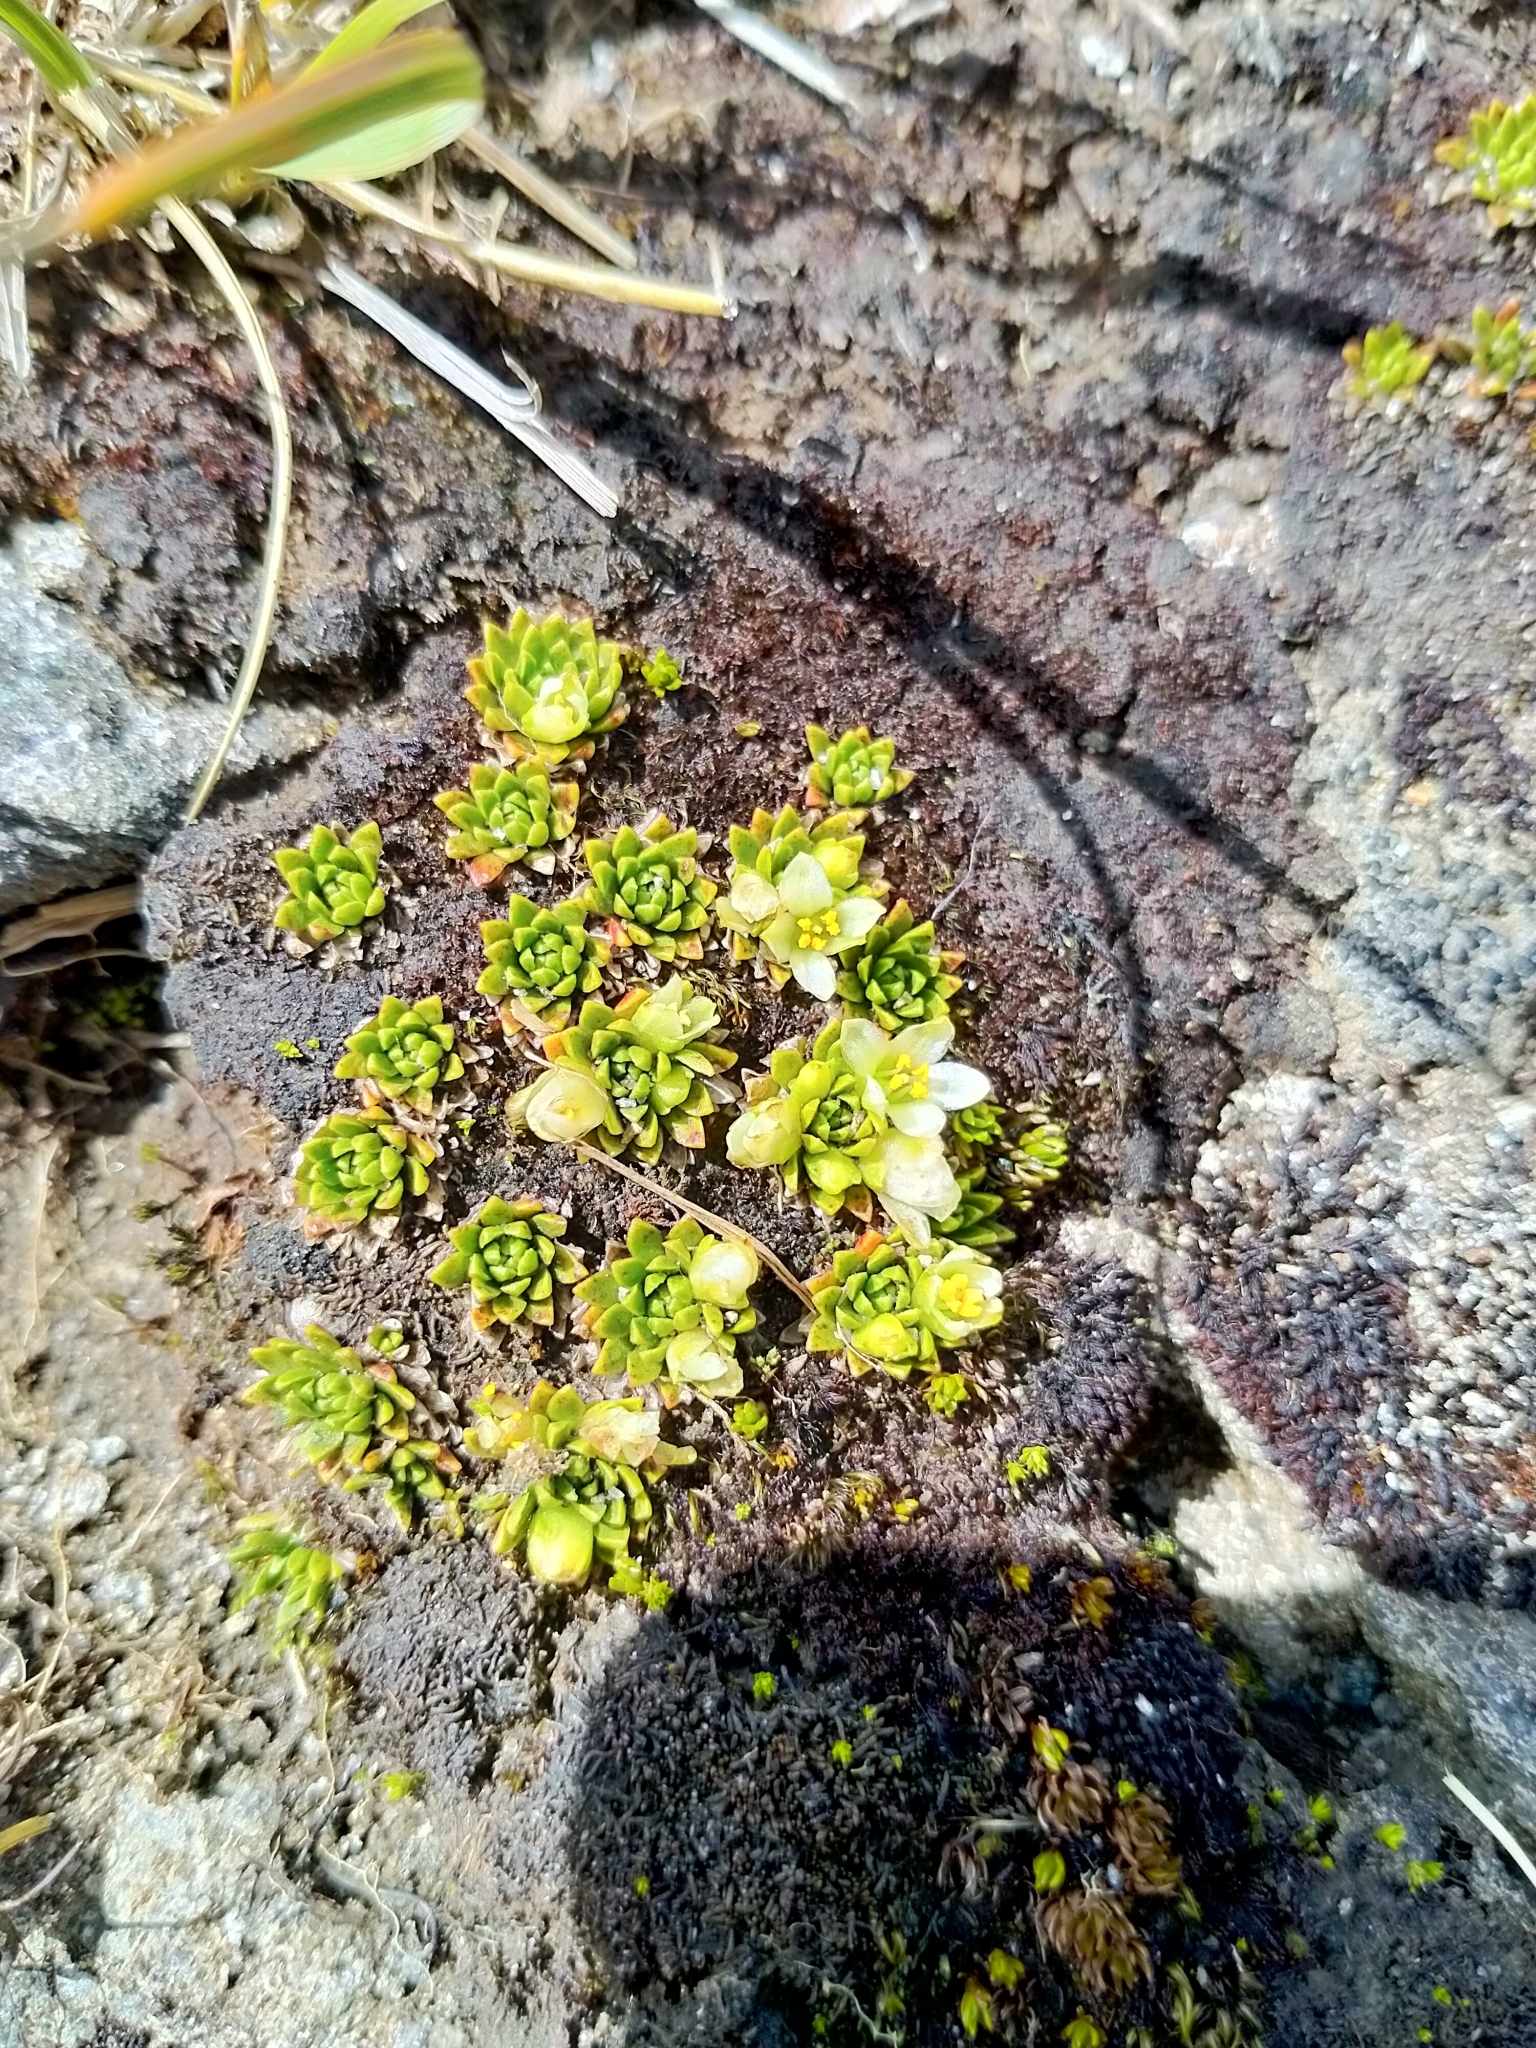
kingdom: Plantae
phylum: Tracheophyta
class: Magnoliopsida
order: Caryophyllales
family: Montiaceae
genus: Hectorella
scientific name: Hectorella caespitosa
